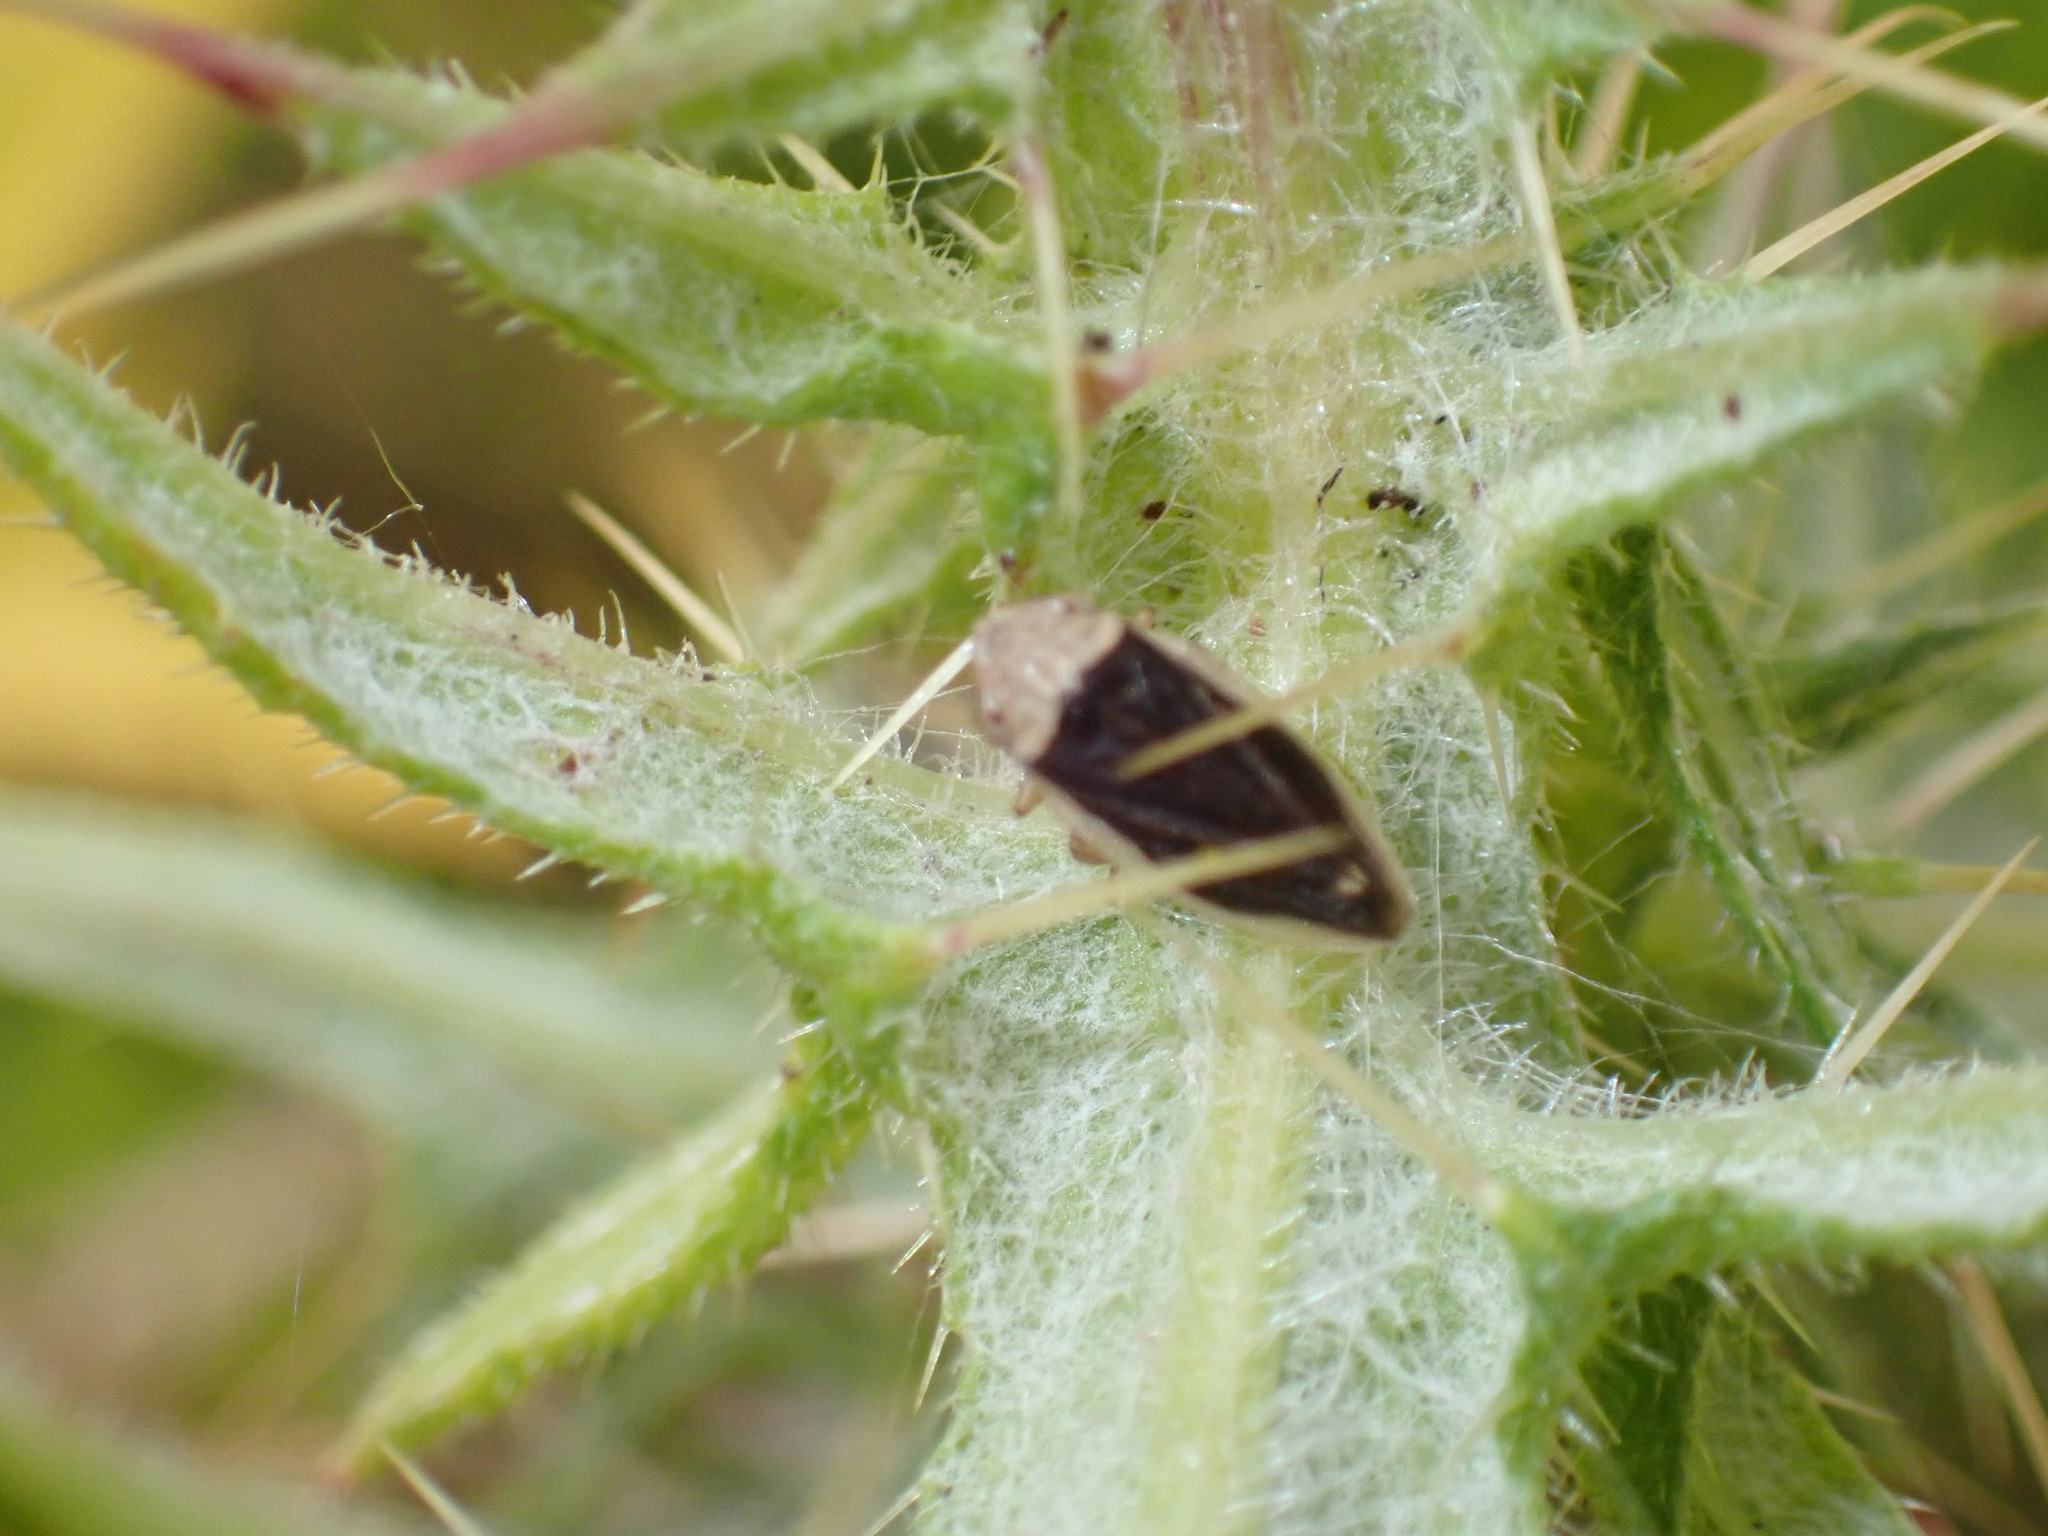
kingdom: Animalia
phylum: Arthropoda
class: Insecta
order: Hemiptera
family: Aphrophoridae
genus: Philaenus
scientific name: Philaenus spumarius
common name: Meadow spittlebug
